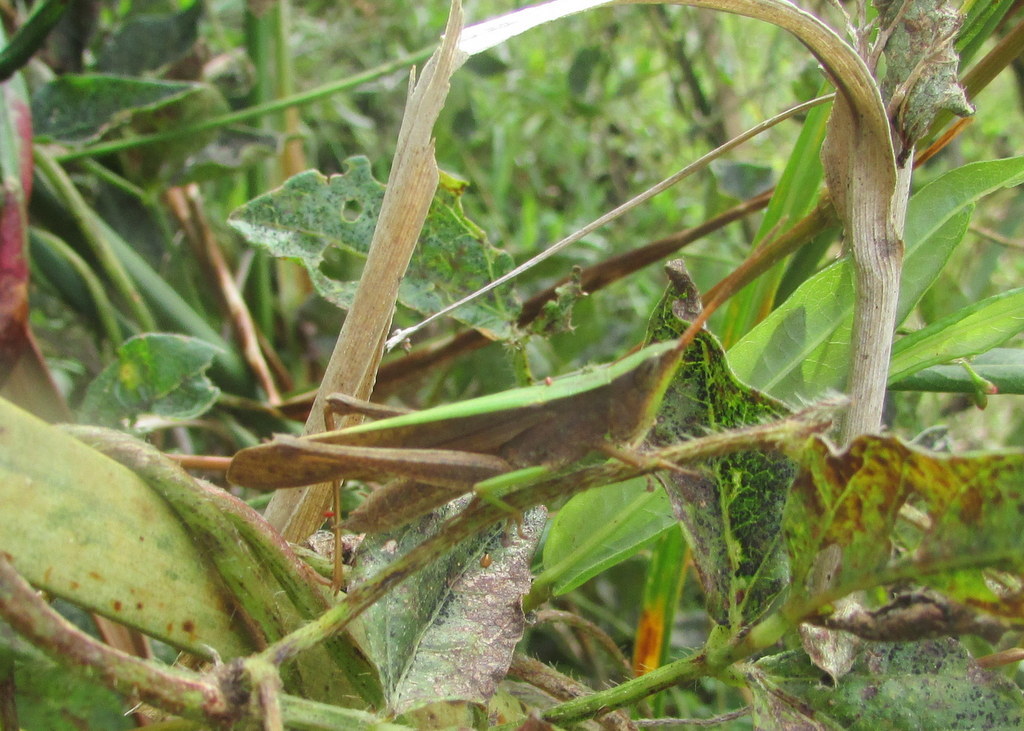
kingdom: Animalia
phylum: Arthropoda
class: Insecta
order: Orthoptera
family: Acrididae
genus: Metaleptea
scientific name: Metaleptea adspersa
